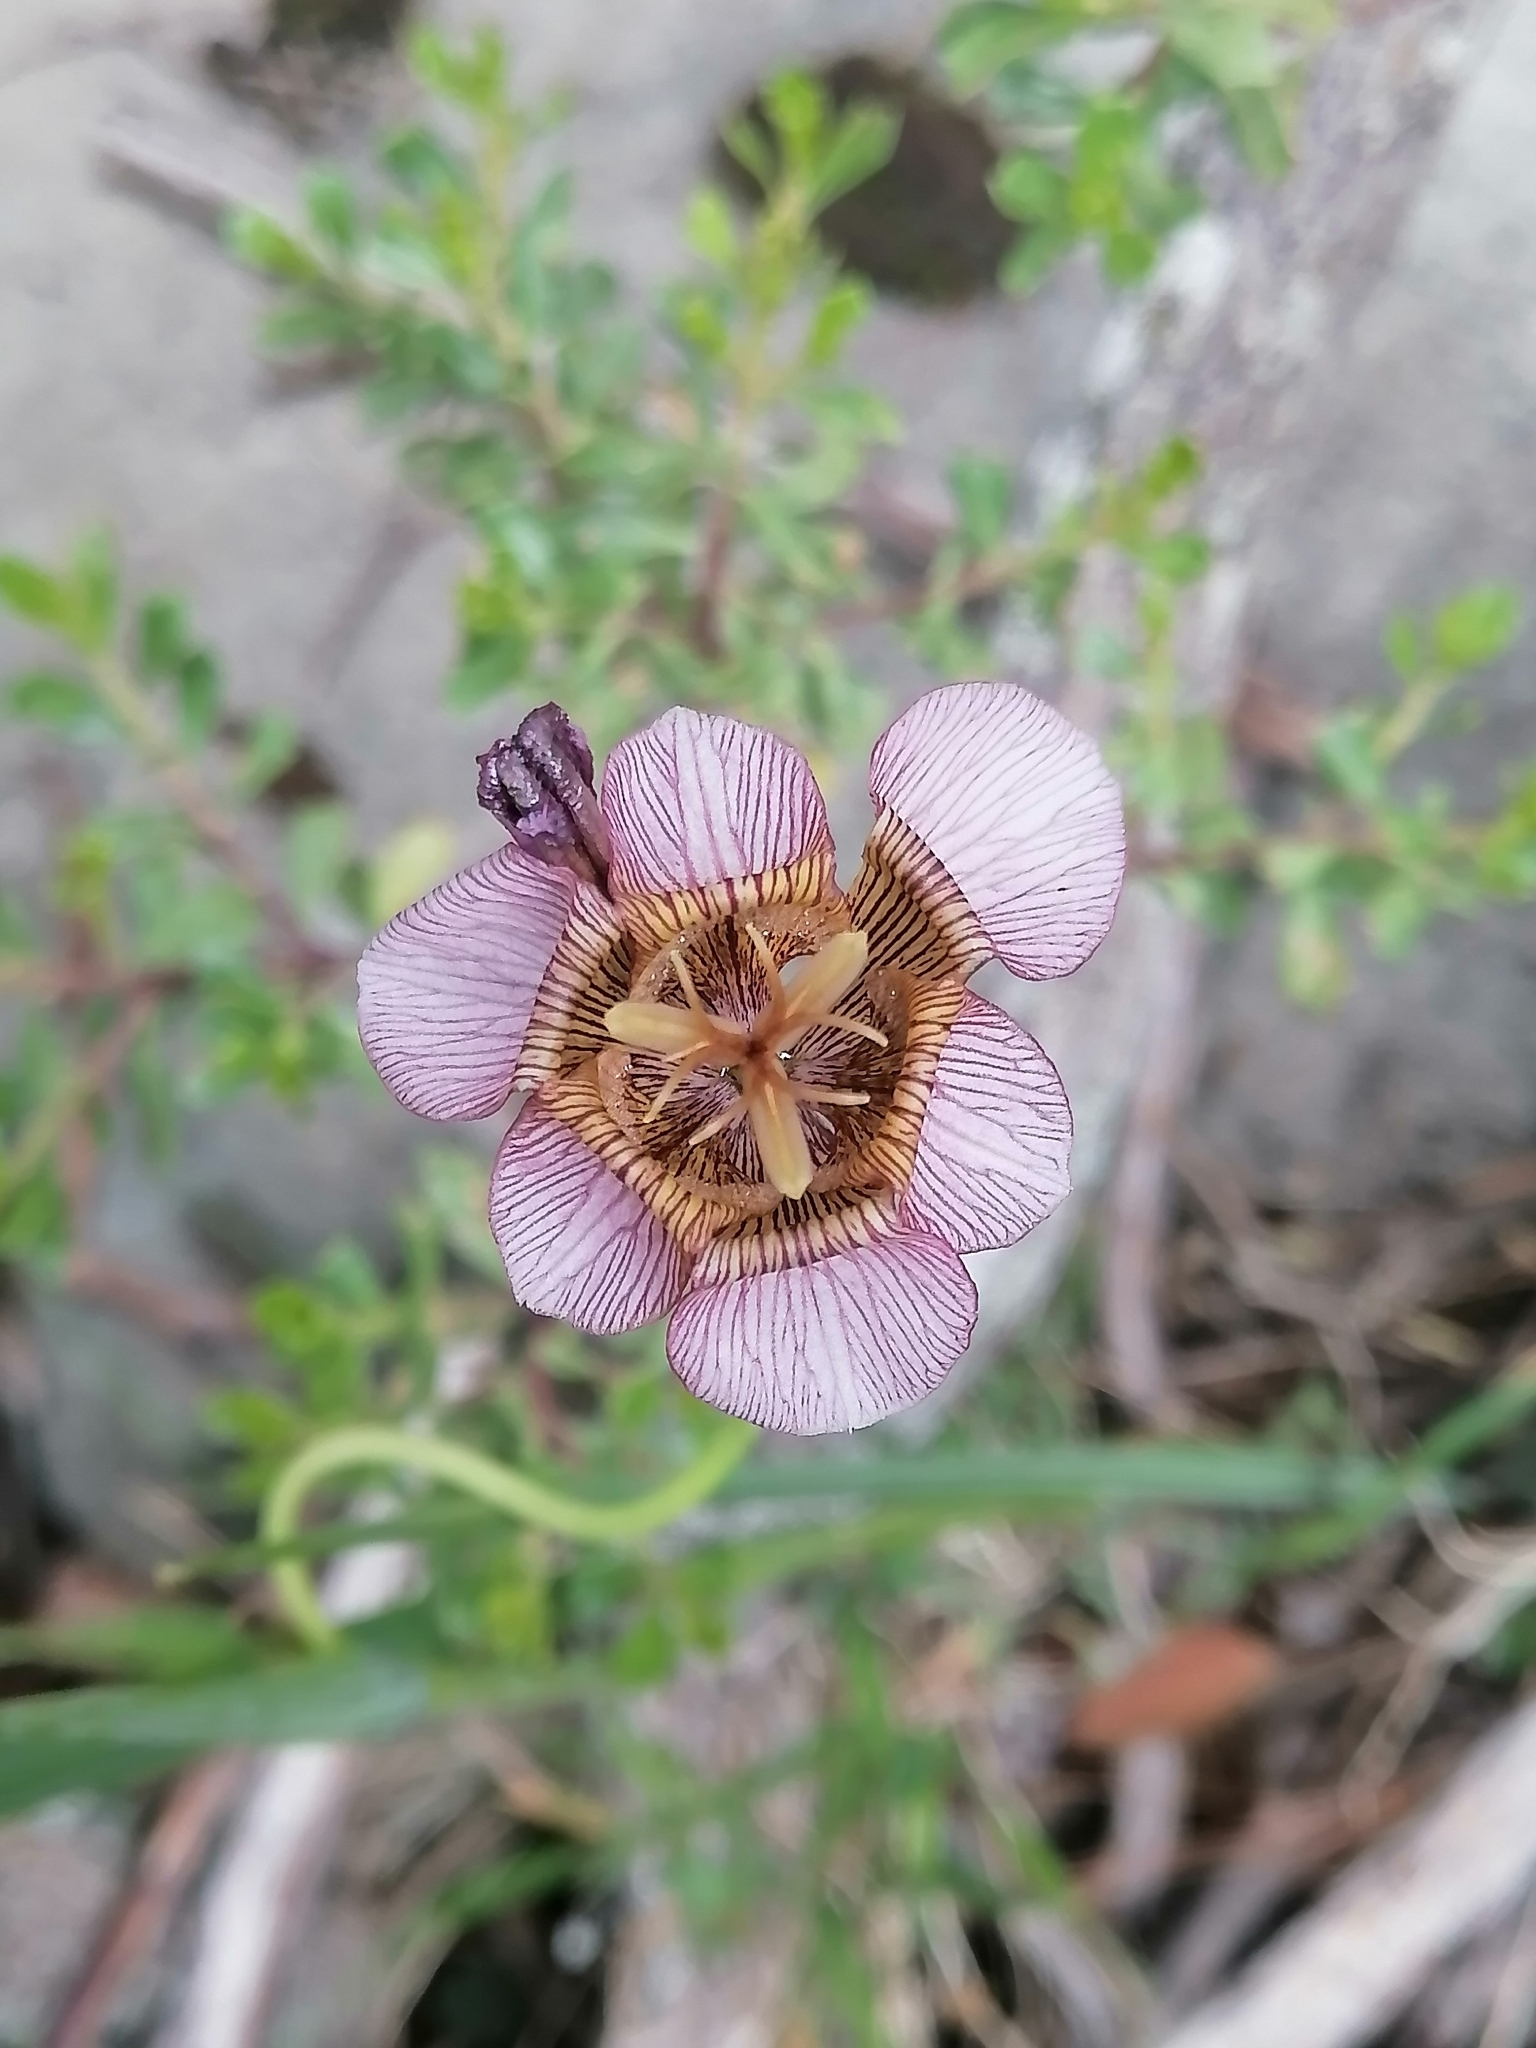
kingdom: Plantae
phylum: Tracheophyta
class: Liliopsida
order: Asparagales
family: Iridaceae
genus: Tigridia
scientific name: Tigridia multiflora
